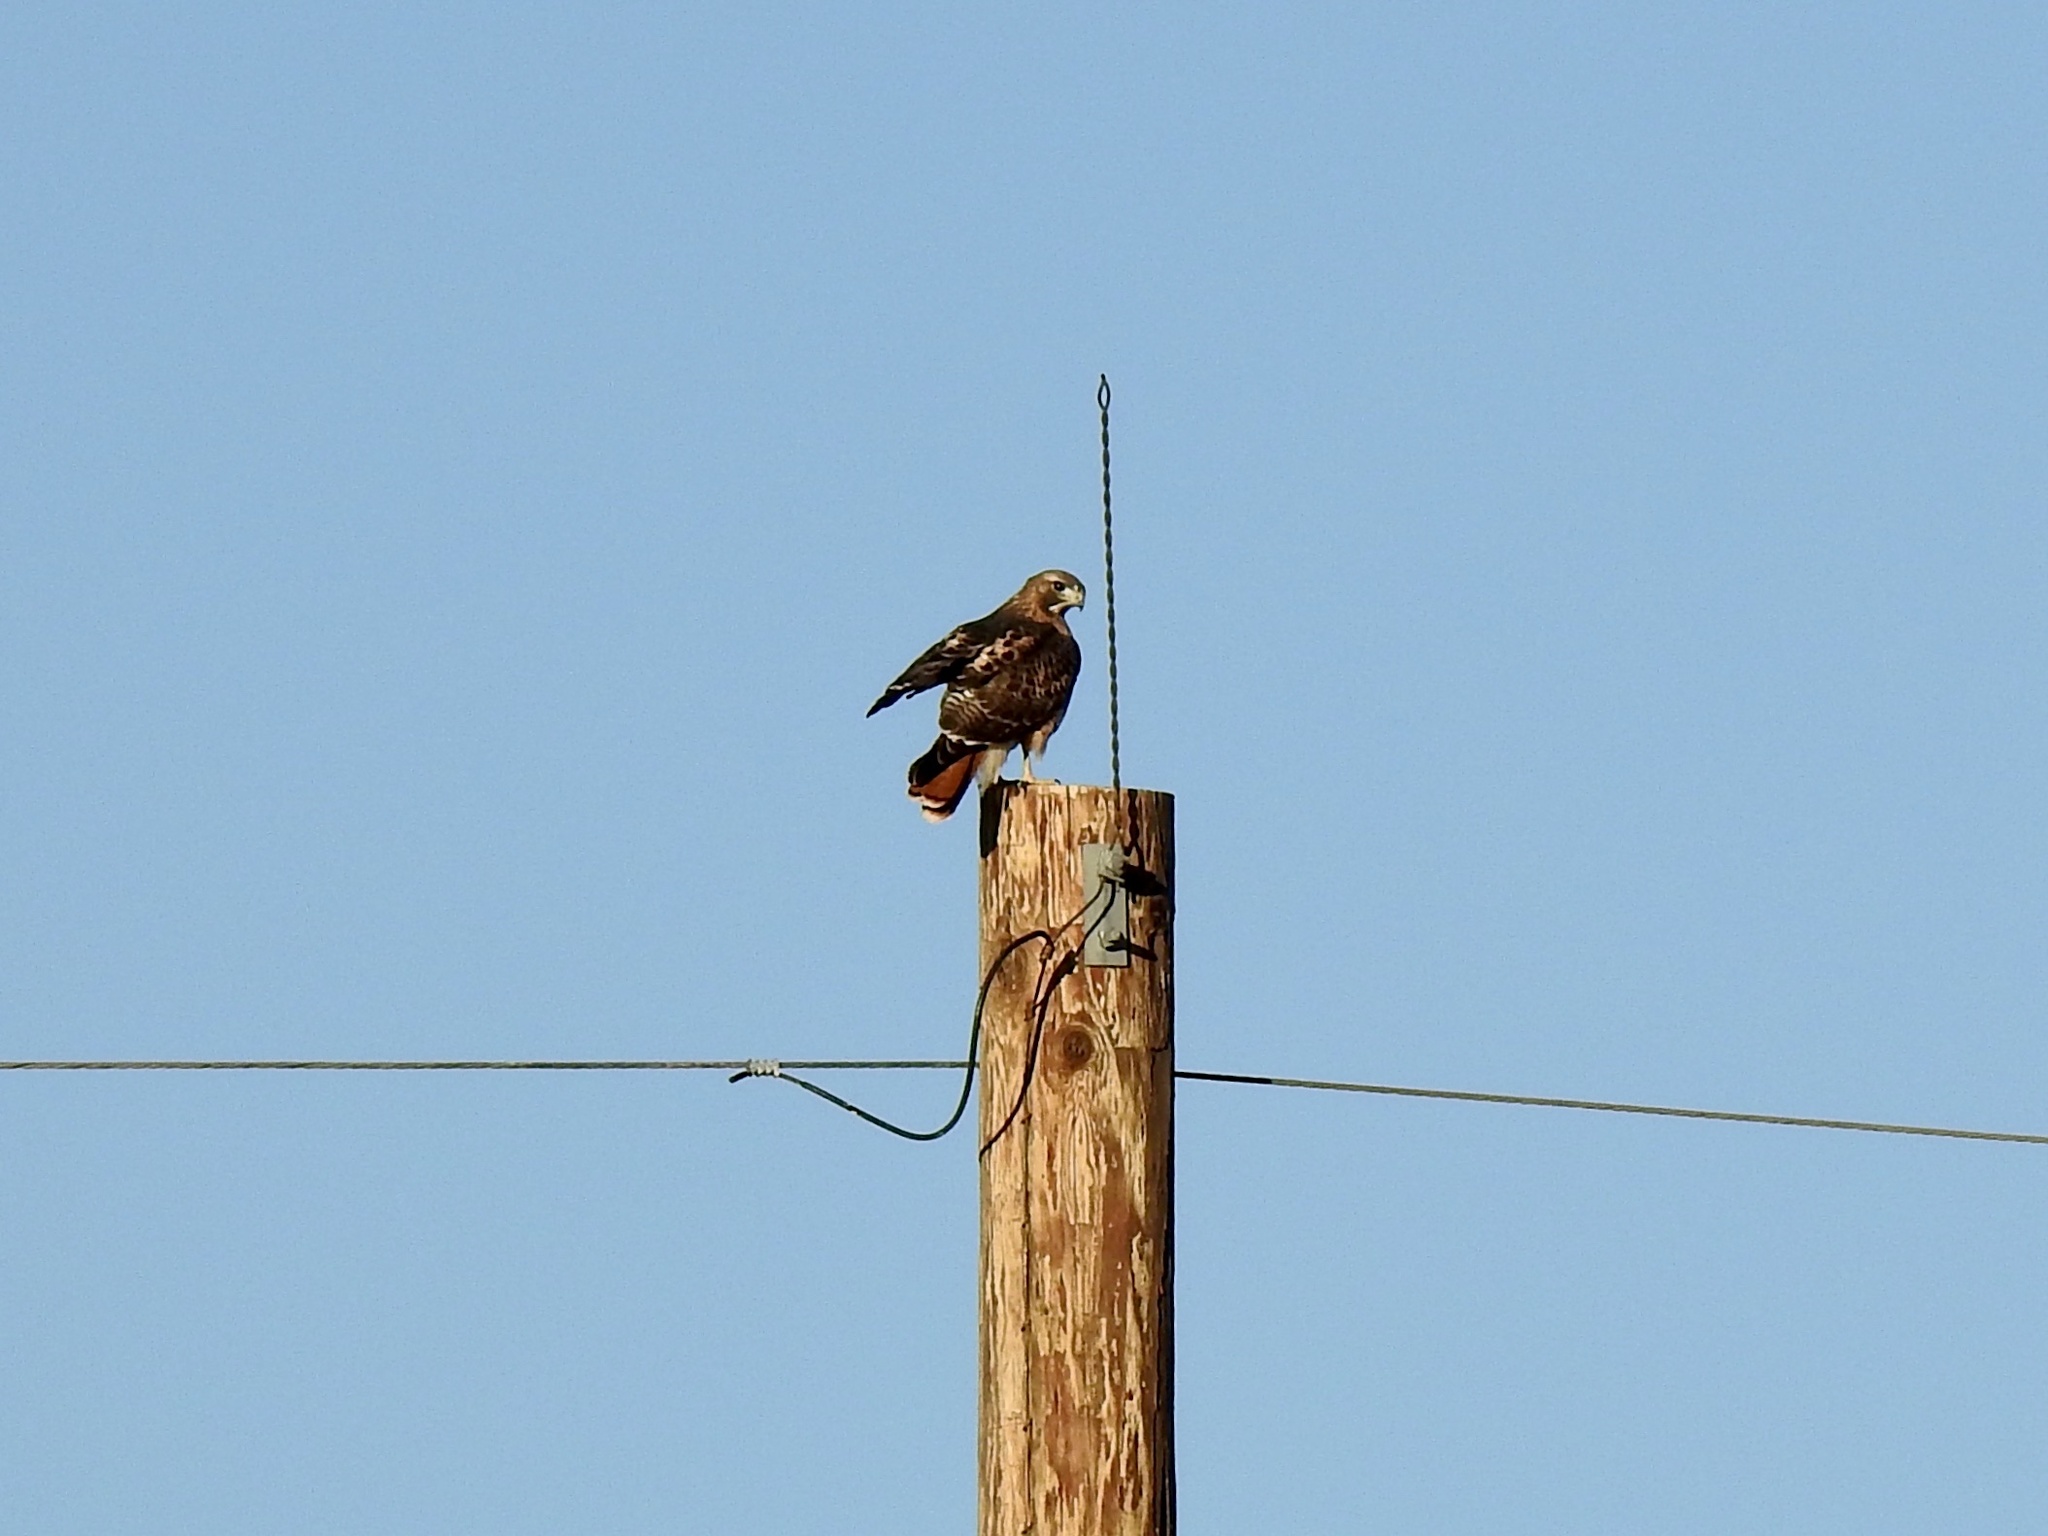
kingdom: Animalia
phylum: Chordata
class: Aves
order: Accipitriformes
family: Accipitridae
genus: Buteo
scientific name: Buteo jamaicensis
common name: Red-tailed hawk
